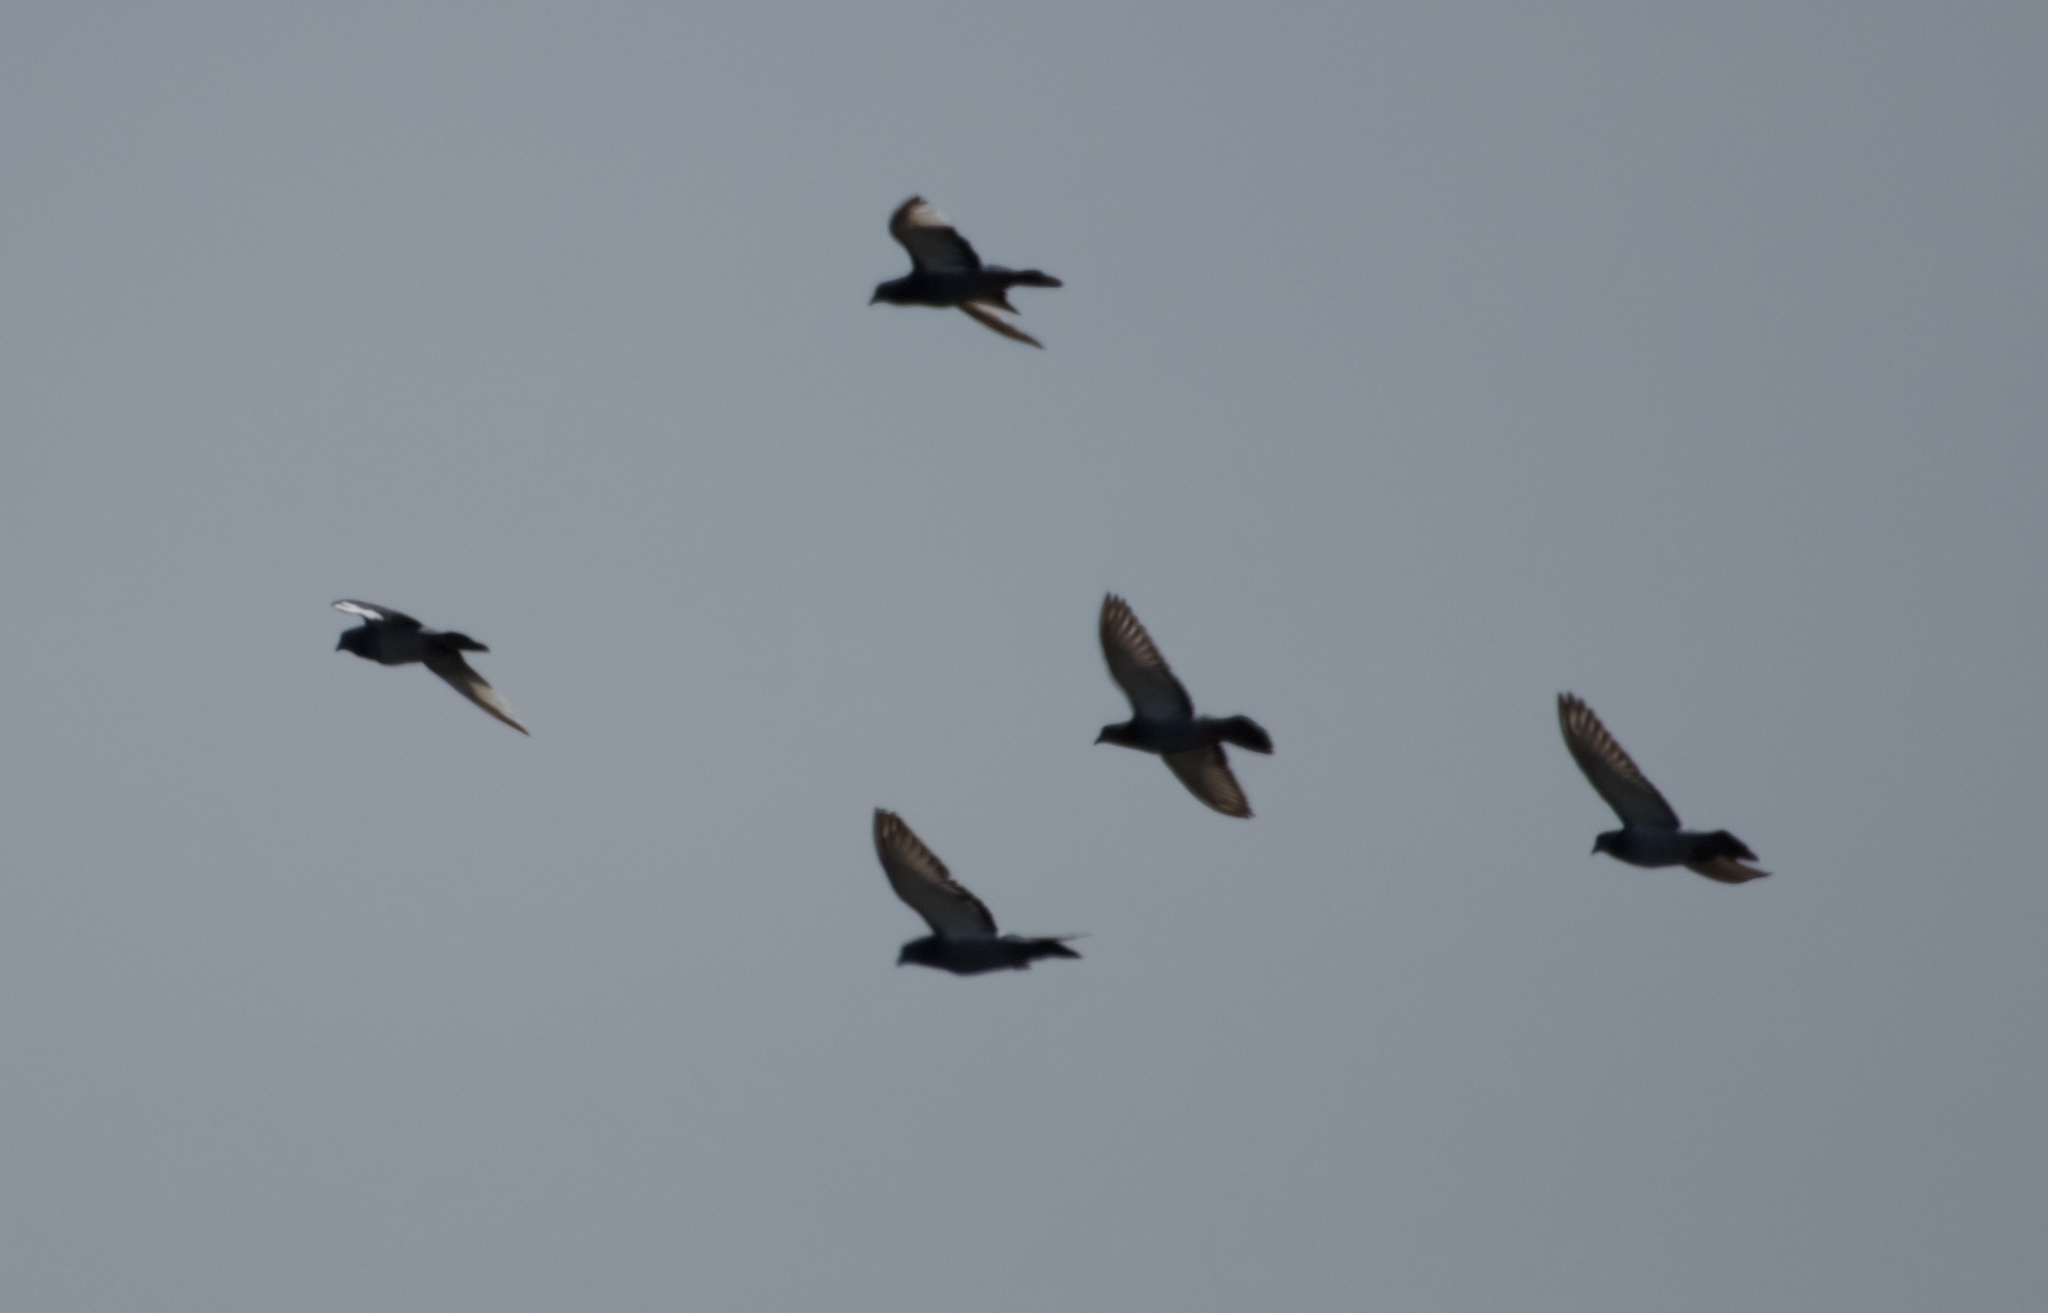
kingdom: Animalia
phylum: Chordata
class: Aves
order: Columbiformes
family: Columbidae
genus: Columba
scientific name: Columba livia
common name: Rock pigeon
